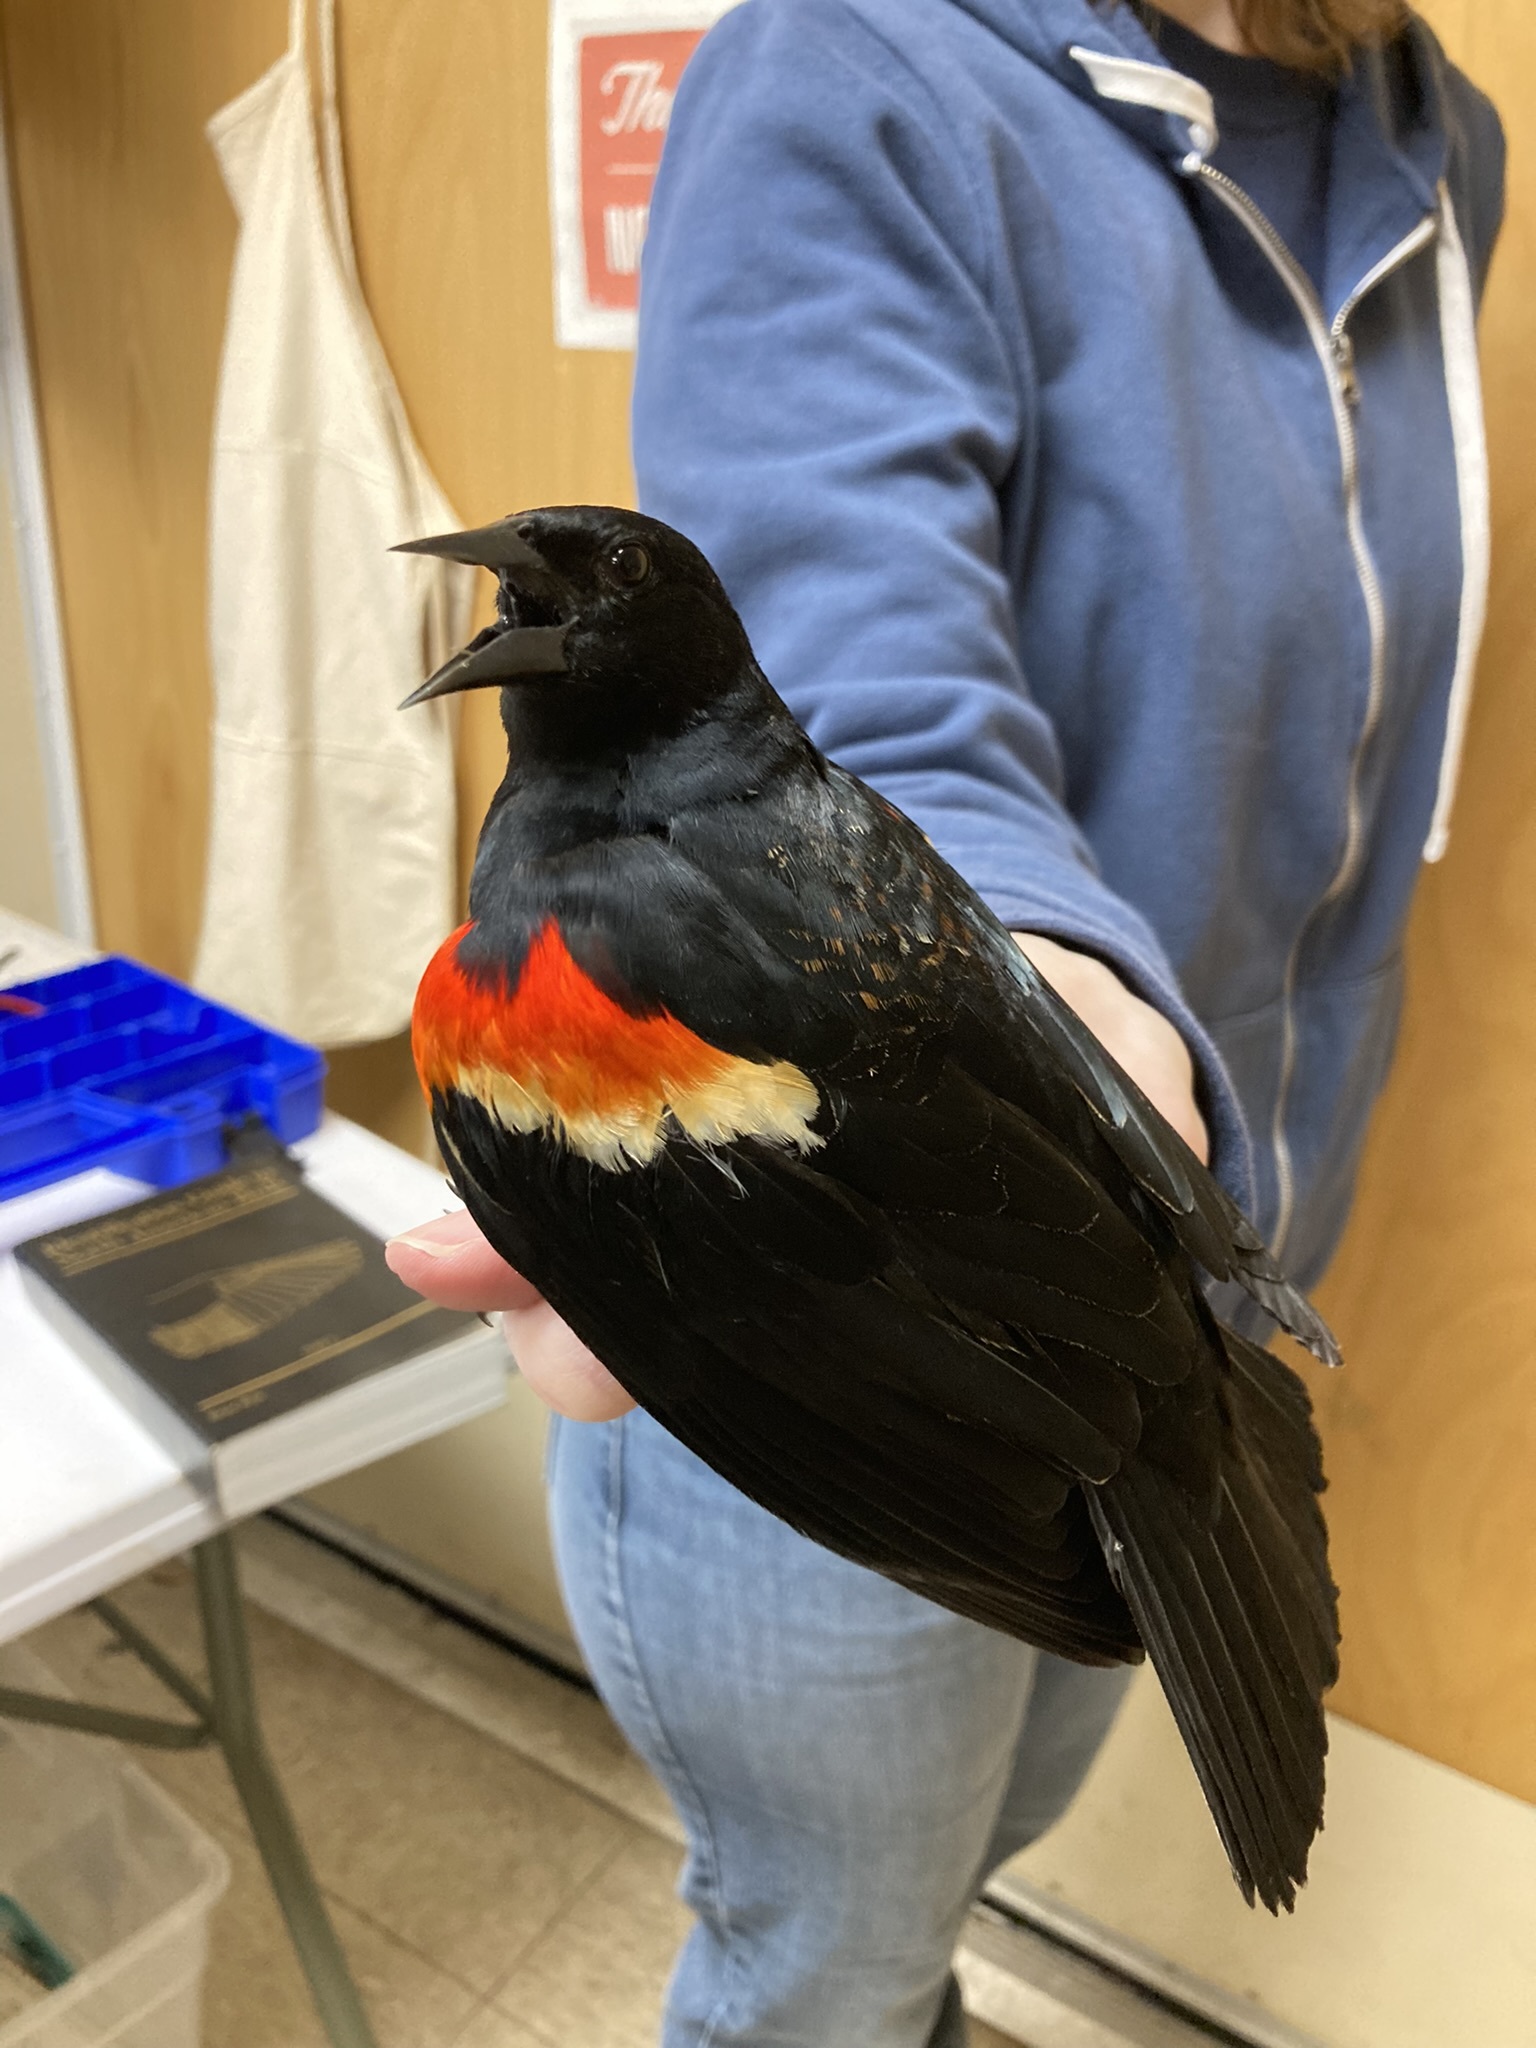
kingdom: Animalia
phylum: Chordata
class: Aves
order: Passeriformes
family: Icteridae
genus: Agelaius
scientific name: Agelaius phoeniceus
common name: Red-winged blackbird
